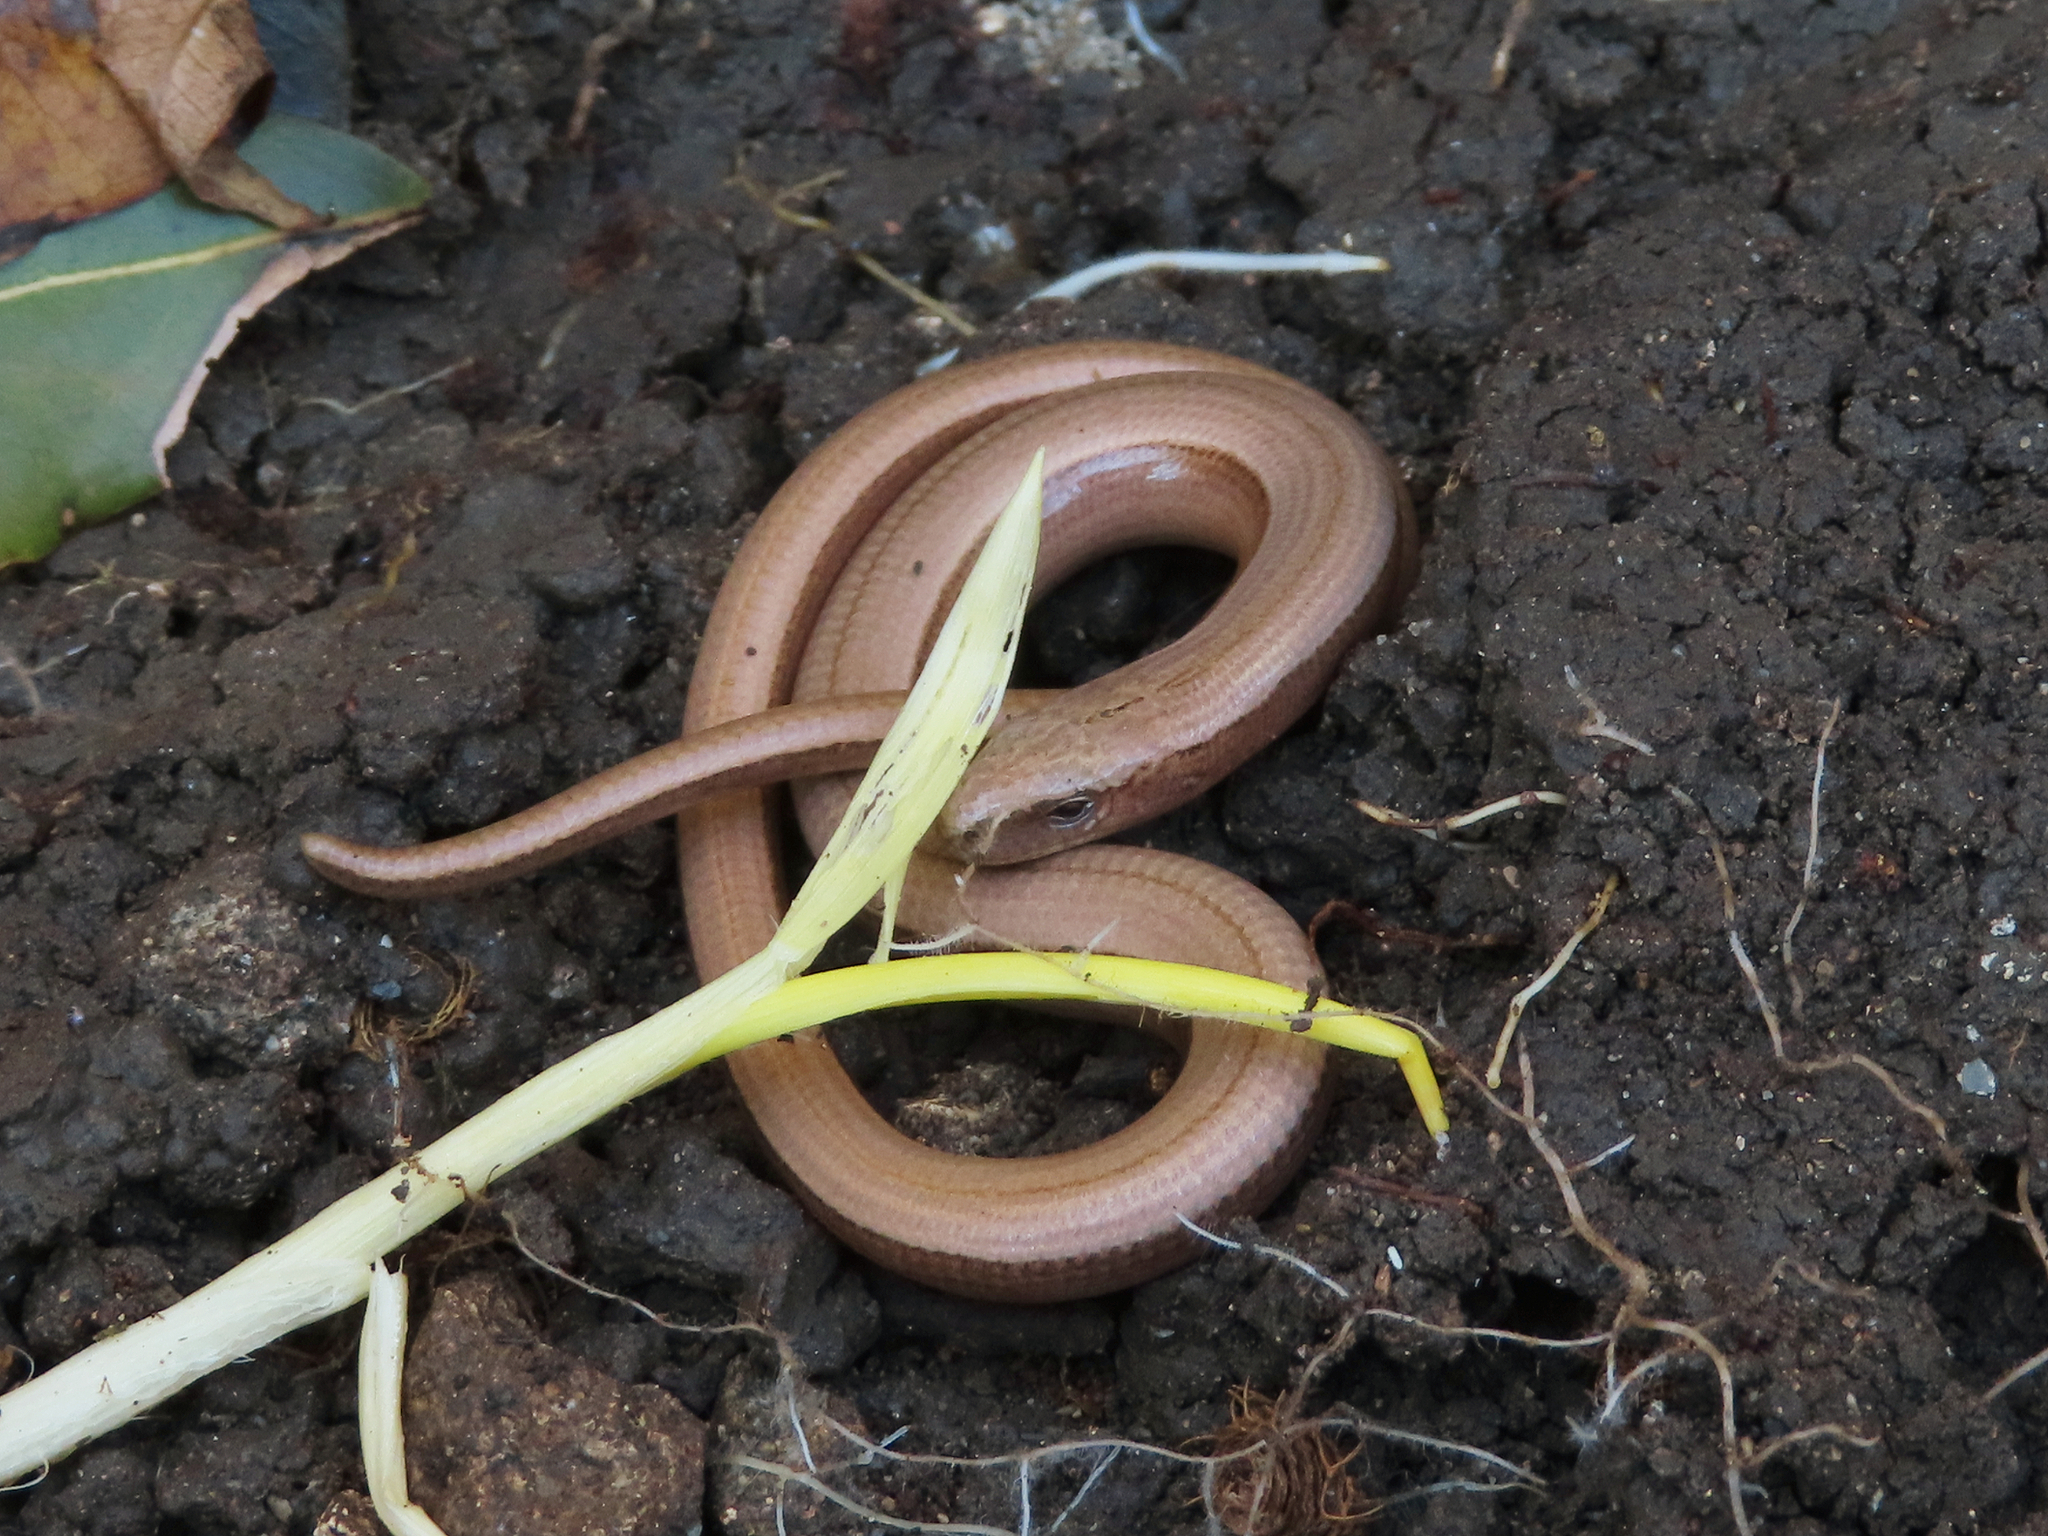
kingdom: Animalia
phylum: Chordata
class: Squamata
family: Anguidae
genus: Anguis
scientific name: Anguis colchica
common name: Slow worm
